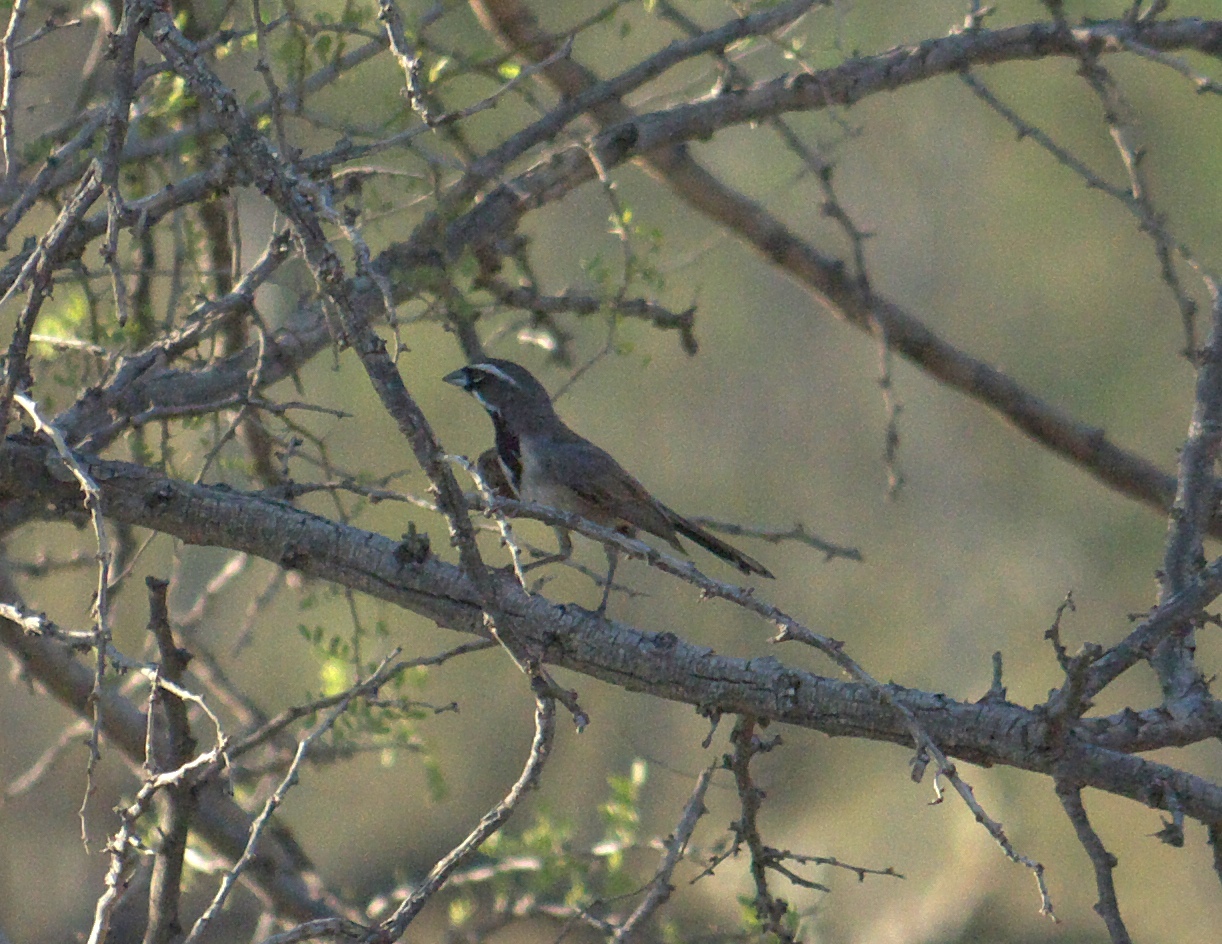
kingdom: Animalia
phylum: Chordata
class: Aves
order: Passeriformes
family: Passerellidae
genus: Amphispiza
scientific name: Amphispiza bilineata
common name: Black-throated sparrow
